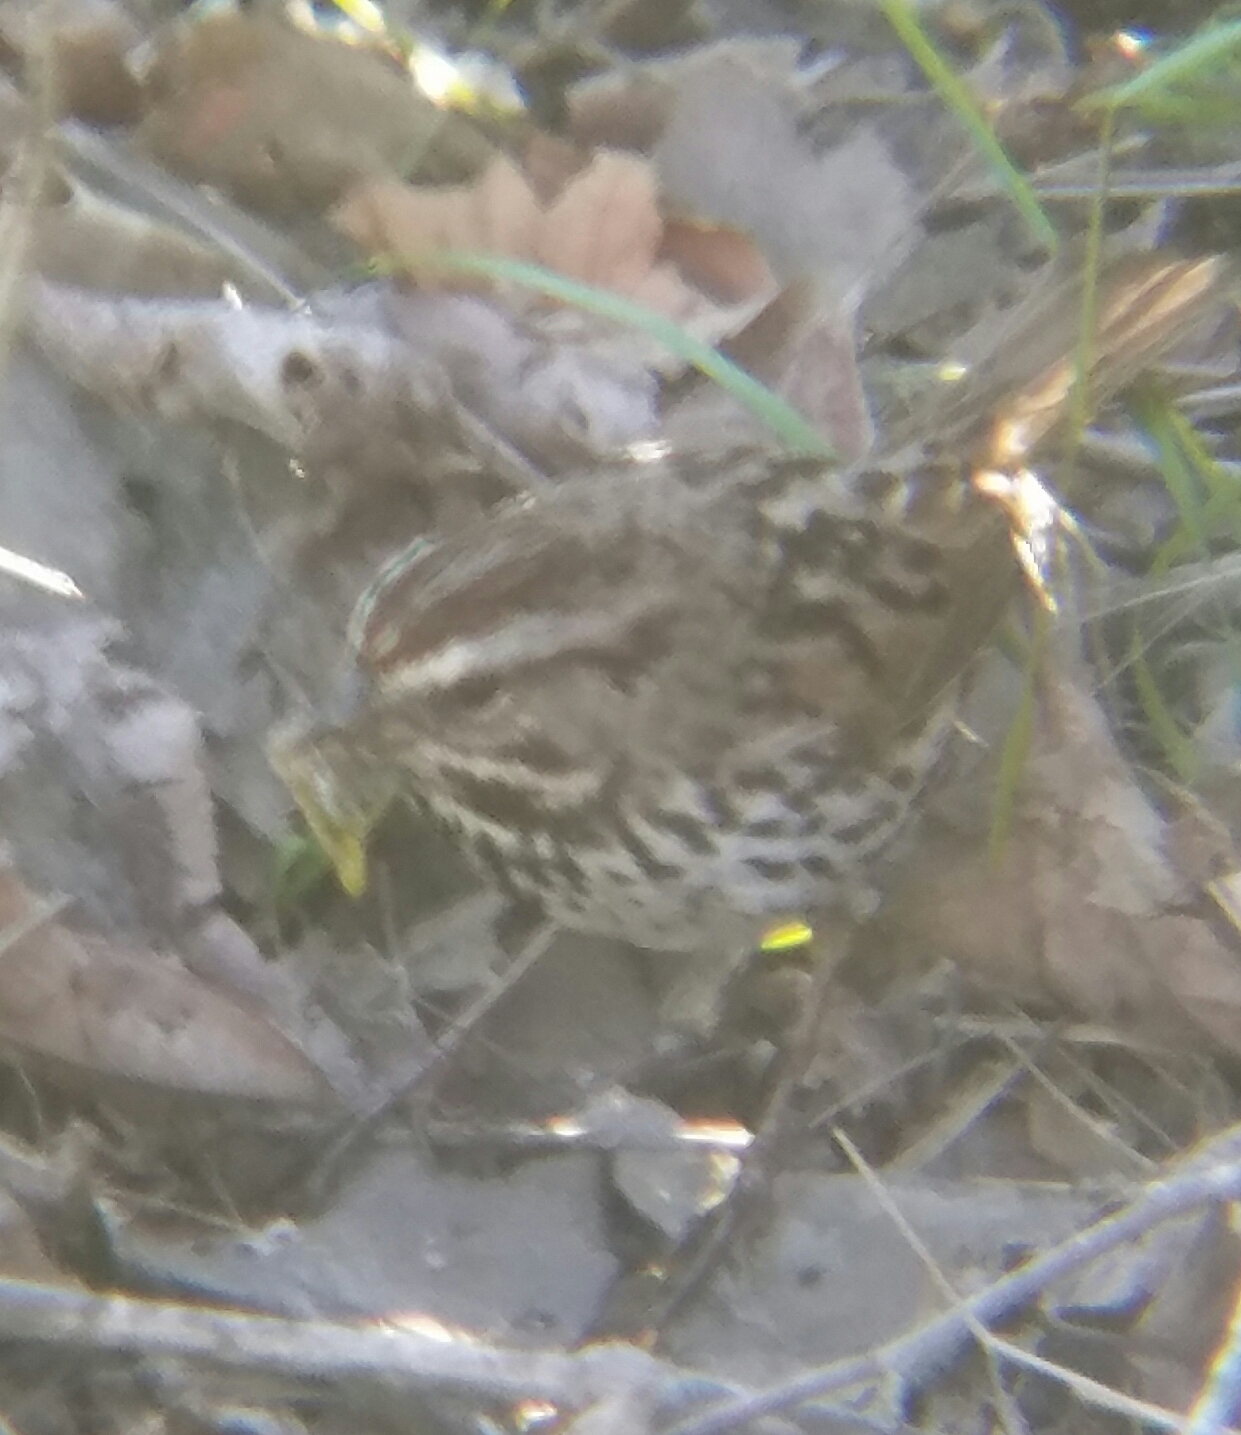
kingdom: Animalia
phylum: Chordata
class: Aves
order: Passeriformes
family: Passerellidae
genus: Melospiza
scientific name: Melospiza melodia
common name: Song sparrow
